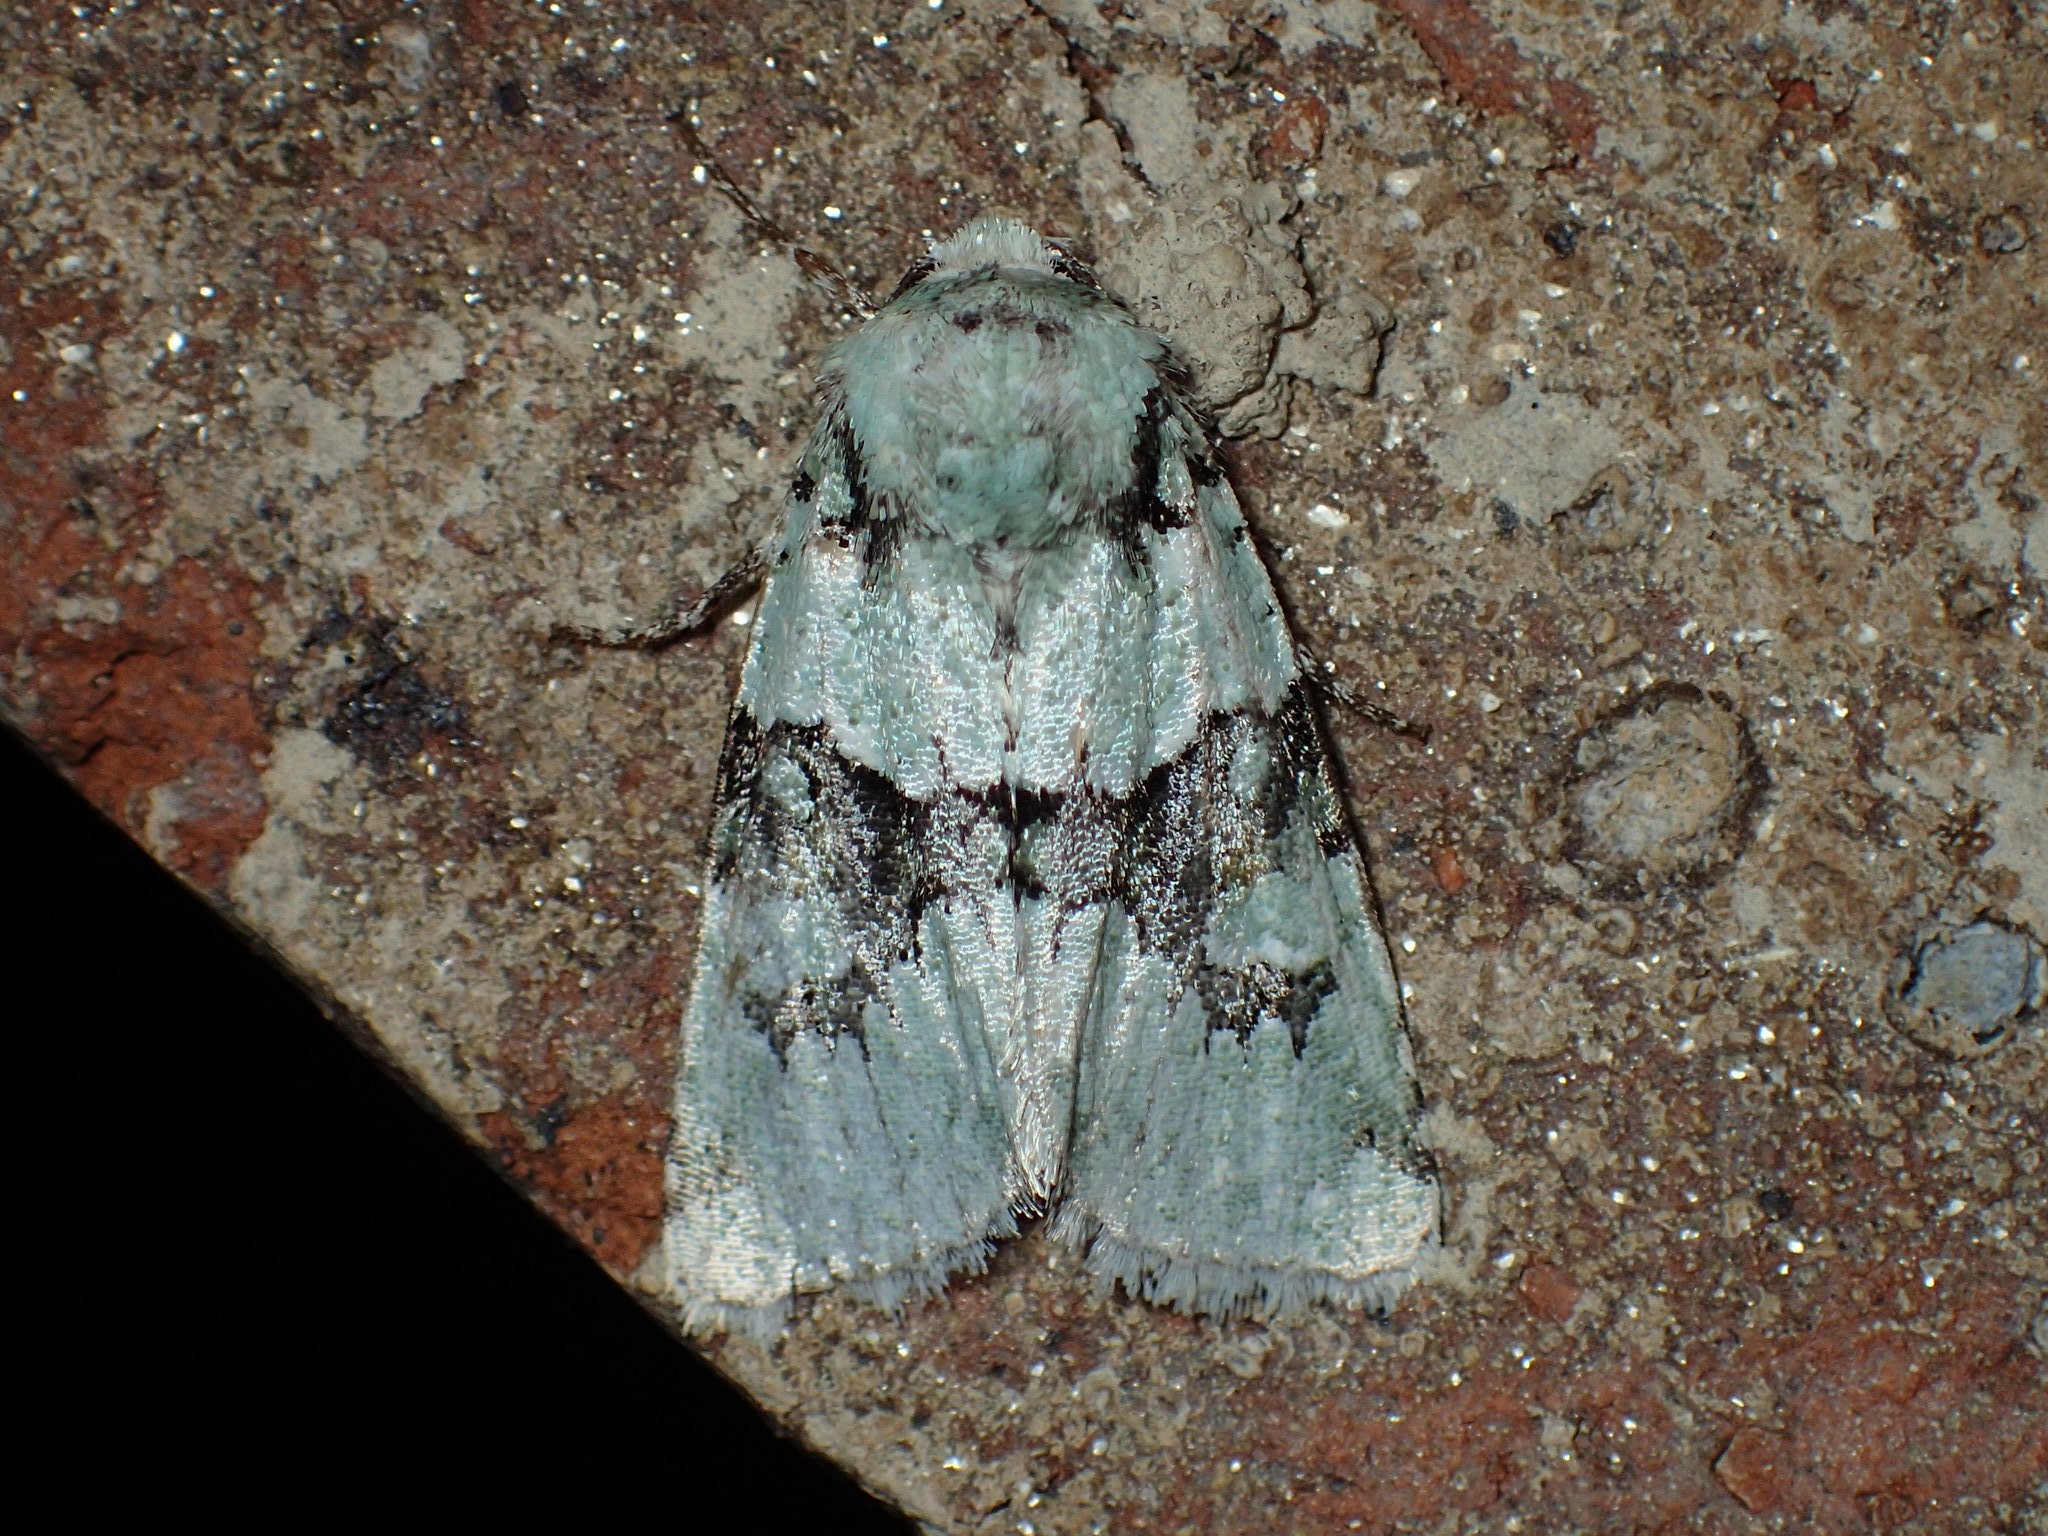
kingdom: Animalia
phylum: Arthropoda
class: Insecta
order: Lepidoptera
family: Noctuidae
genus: Lacinipolia
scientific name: Lacinipolia implicata
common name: Implicit arches
